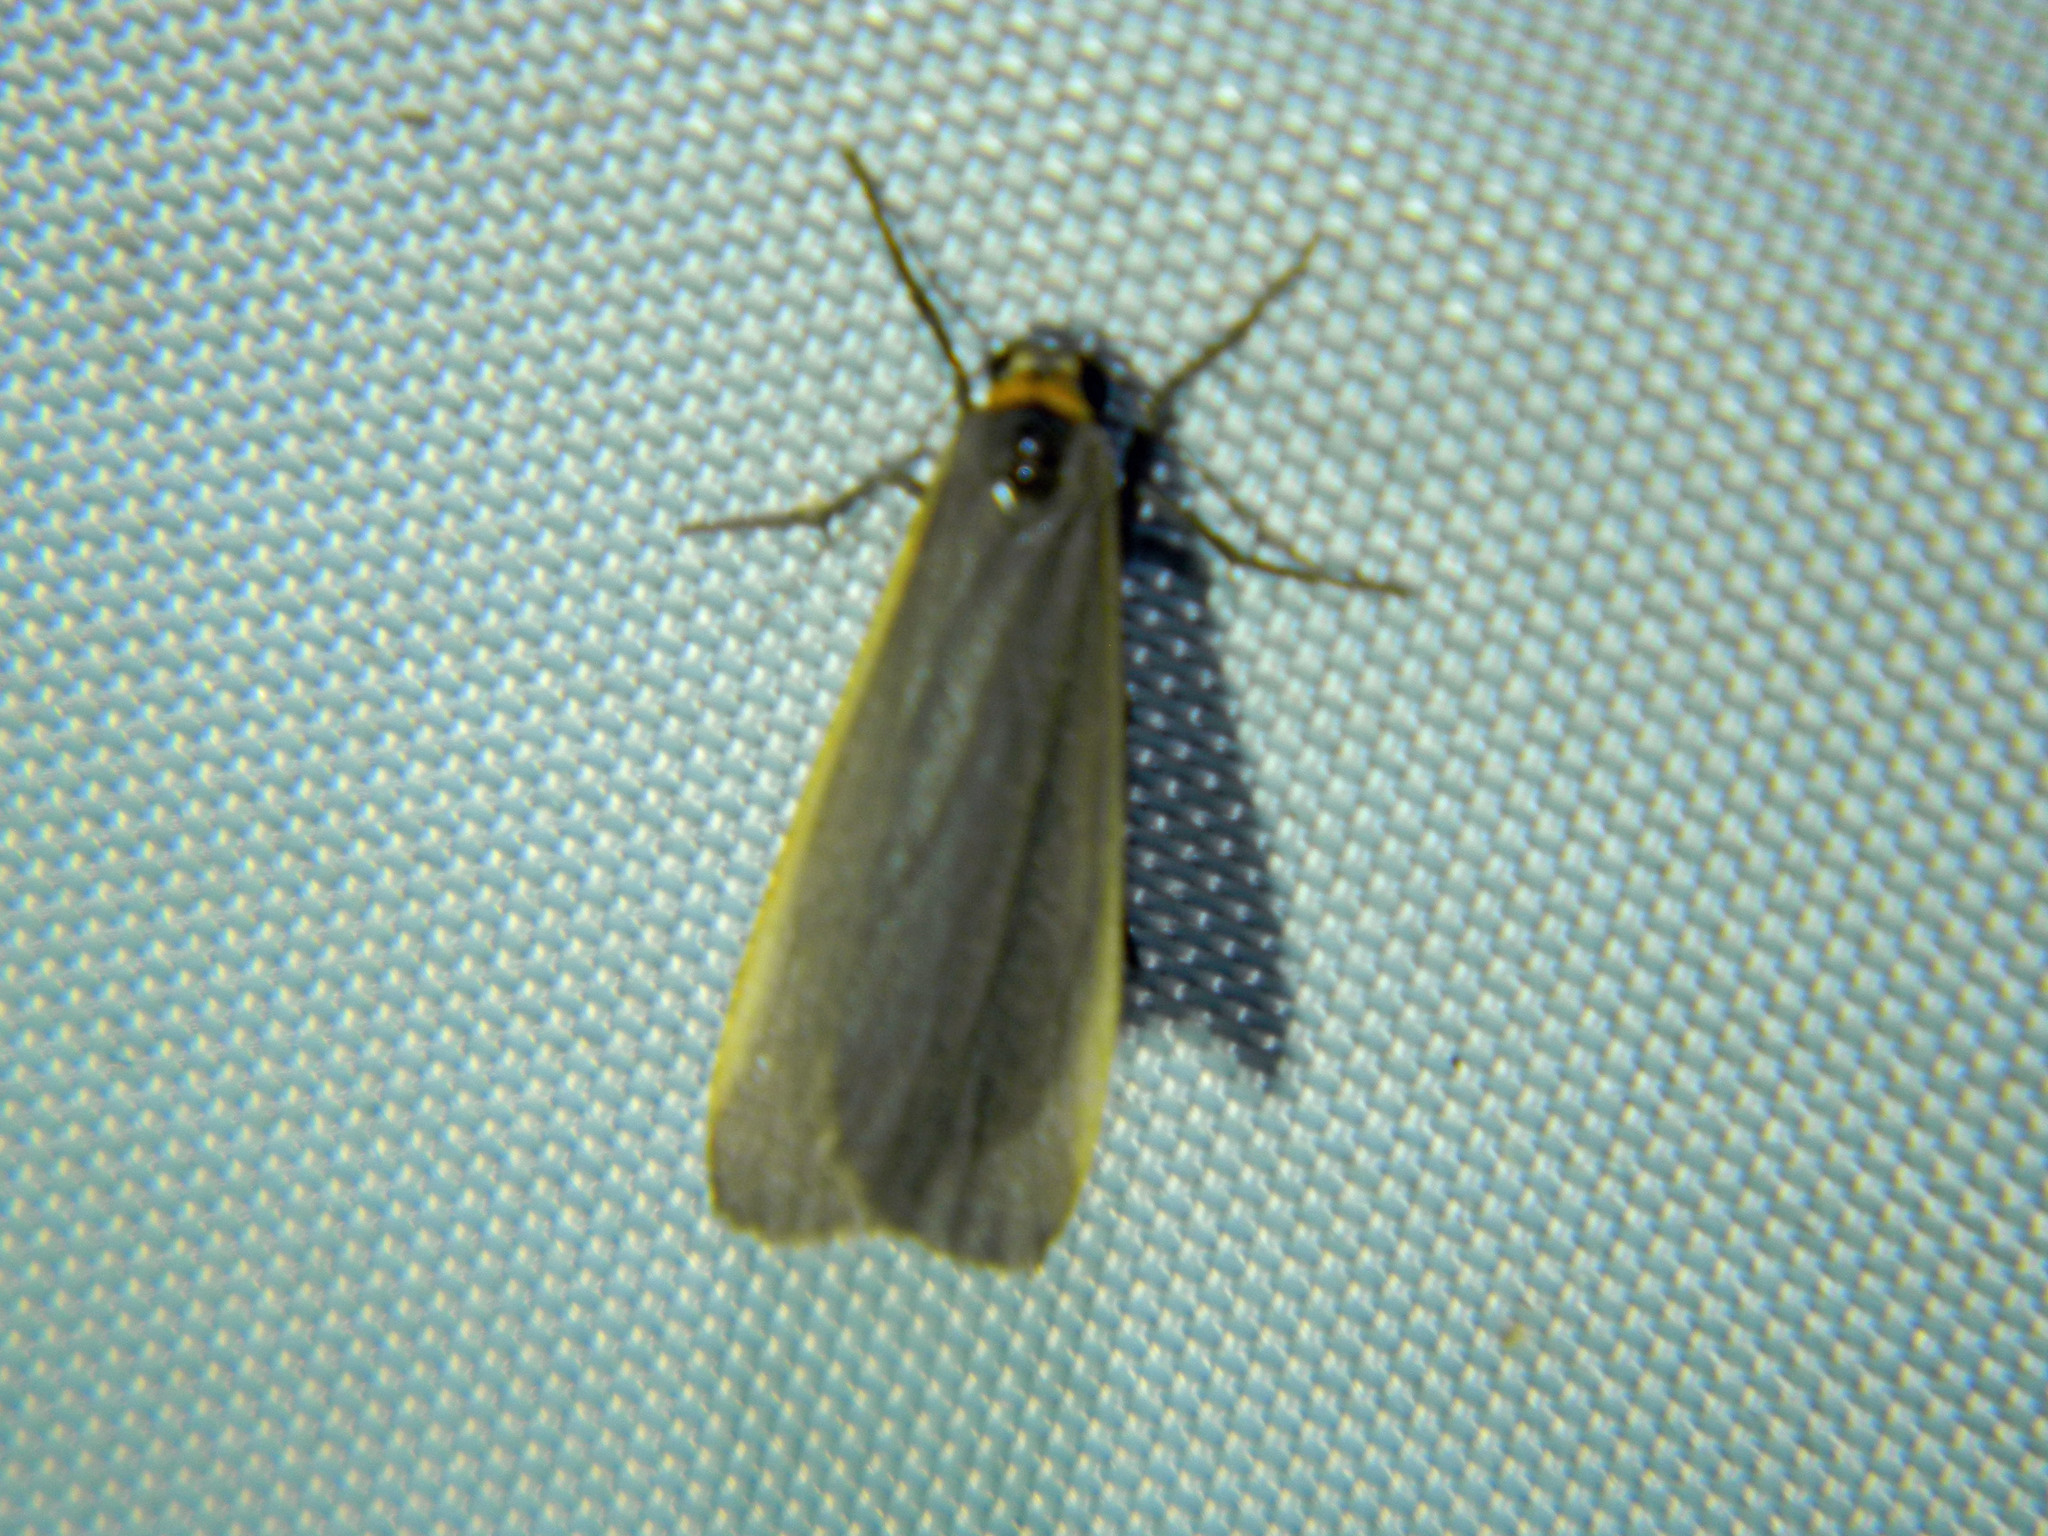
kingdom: Animalia
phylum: Arthropoda
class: Insecta
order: Lepidoptera
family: Erebidae
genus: Manulea
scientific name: Manulea bicolor
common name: Bicolored moth
